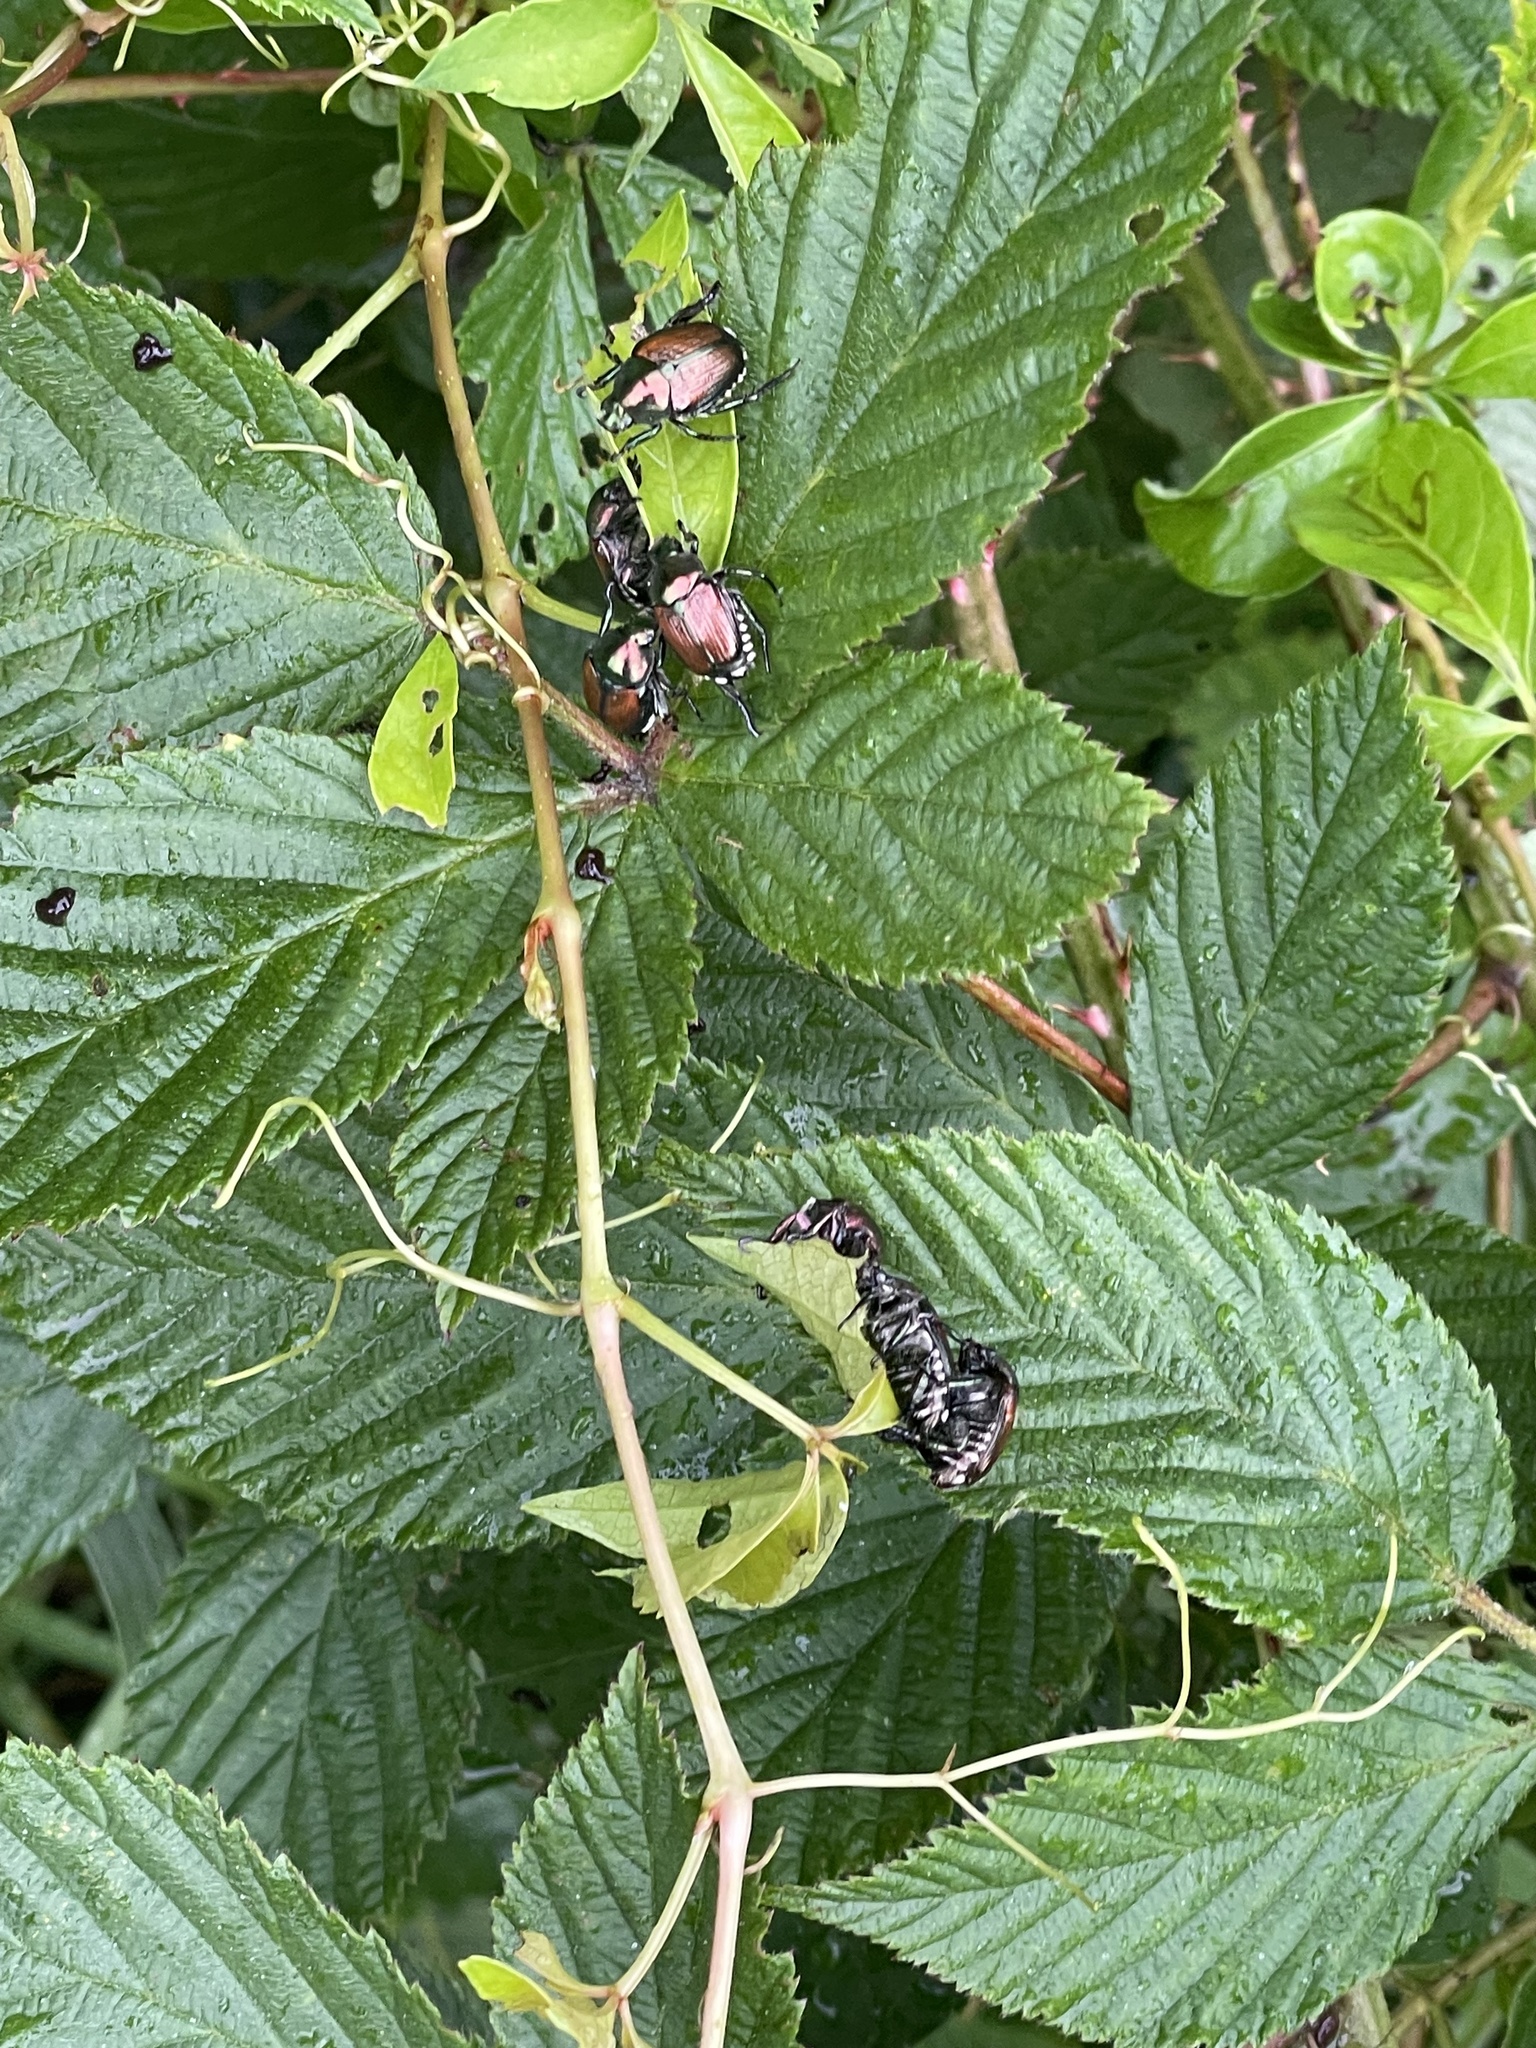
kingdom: Animalia
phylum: Arthropoda
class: Insecta
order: Coleoptera
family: Scarabaeidae
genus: Popillia
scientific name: Popillia japonica
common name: Japanese beetle
